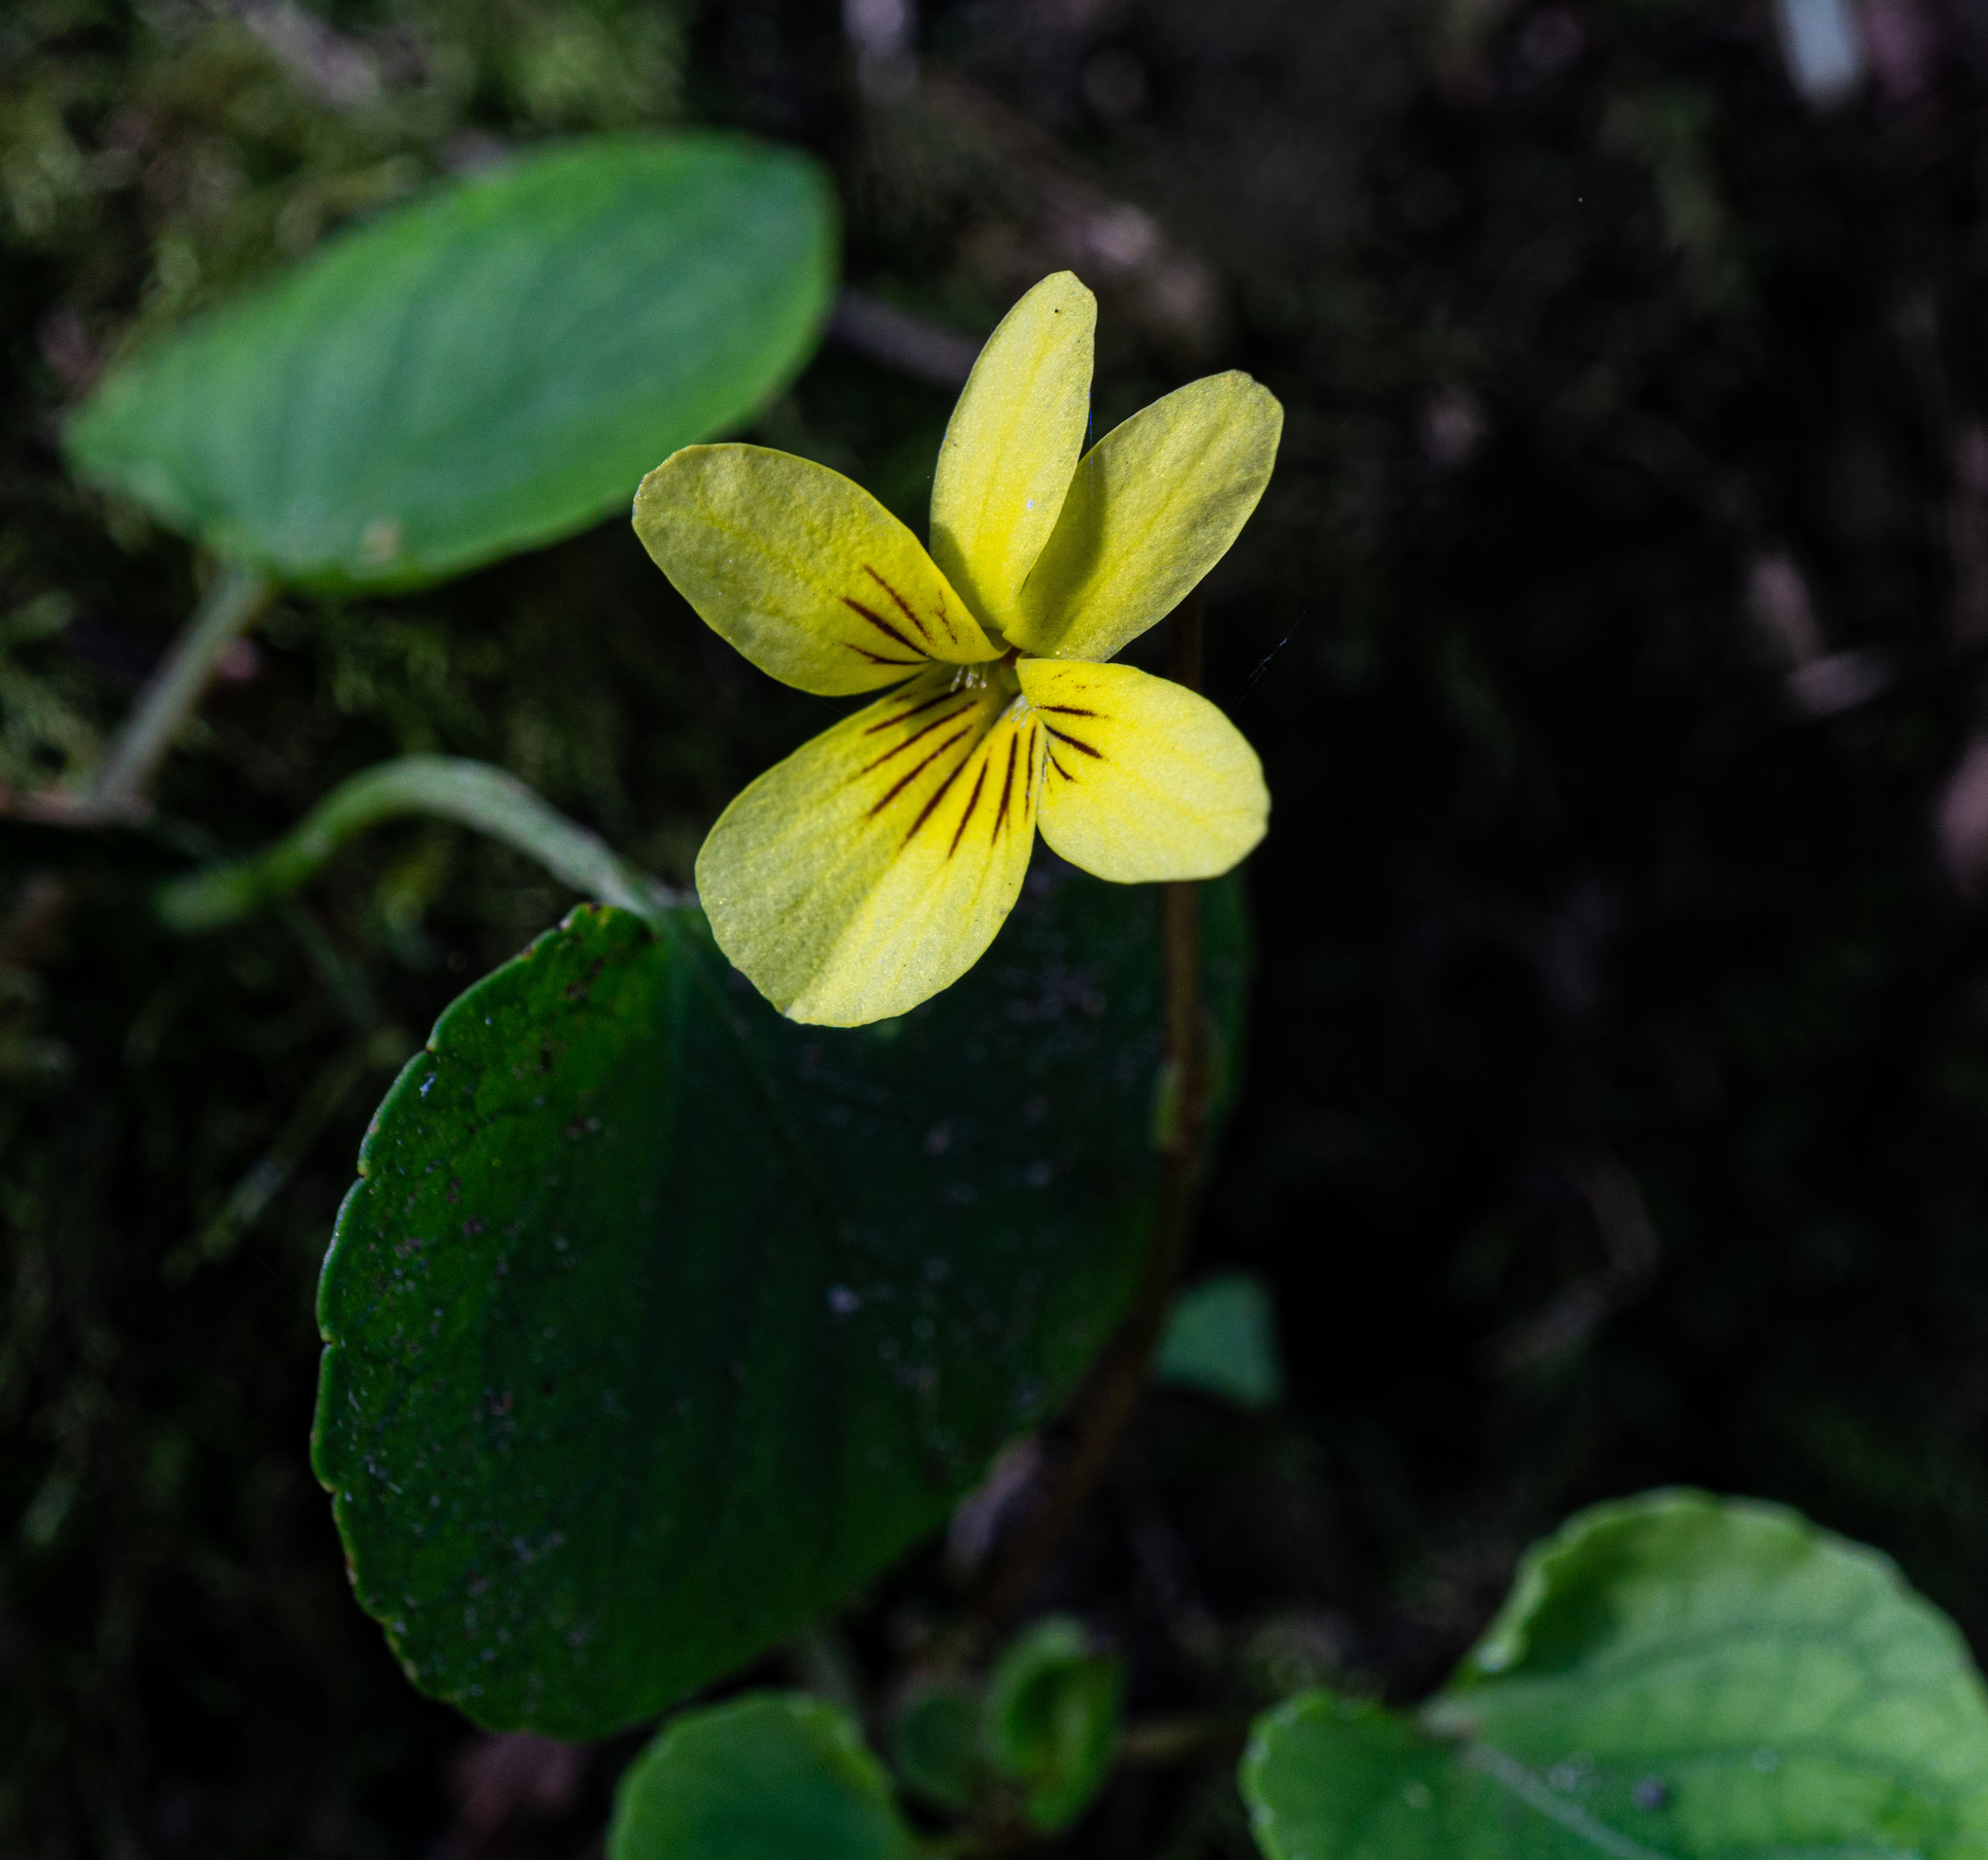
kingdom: Plantae
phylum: Tracheophyta
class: Magnoliopsida
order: Malpighiales
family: Violaceae
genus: Viola
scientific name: Viola sempervirens
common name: Evergreen violet
